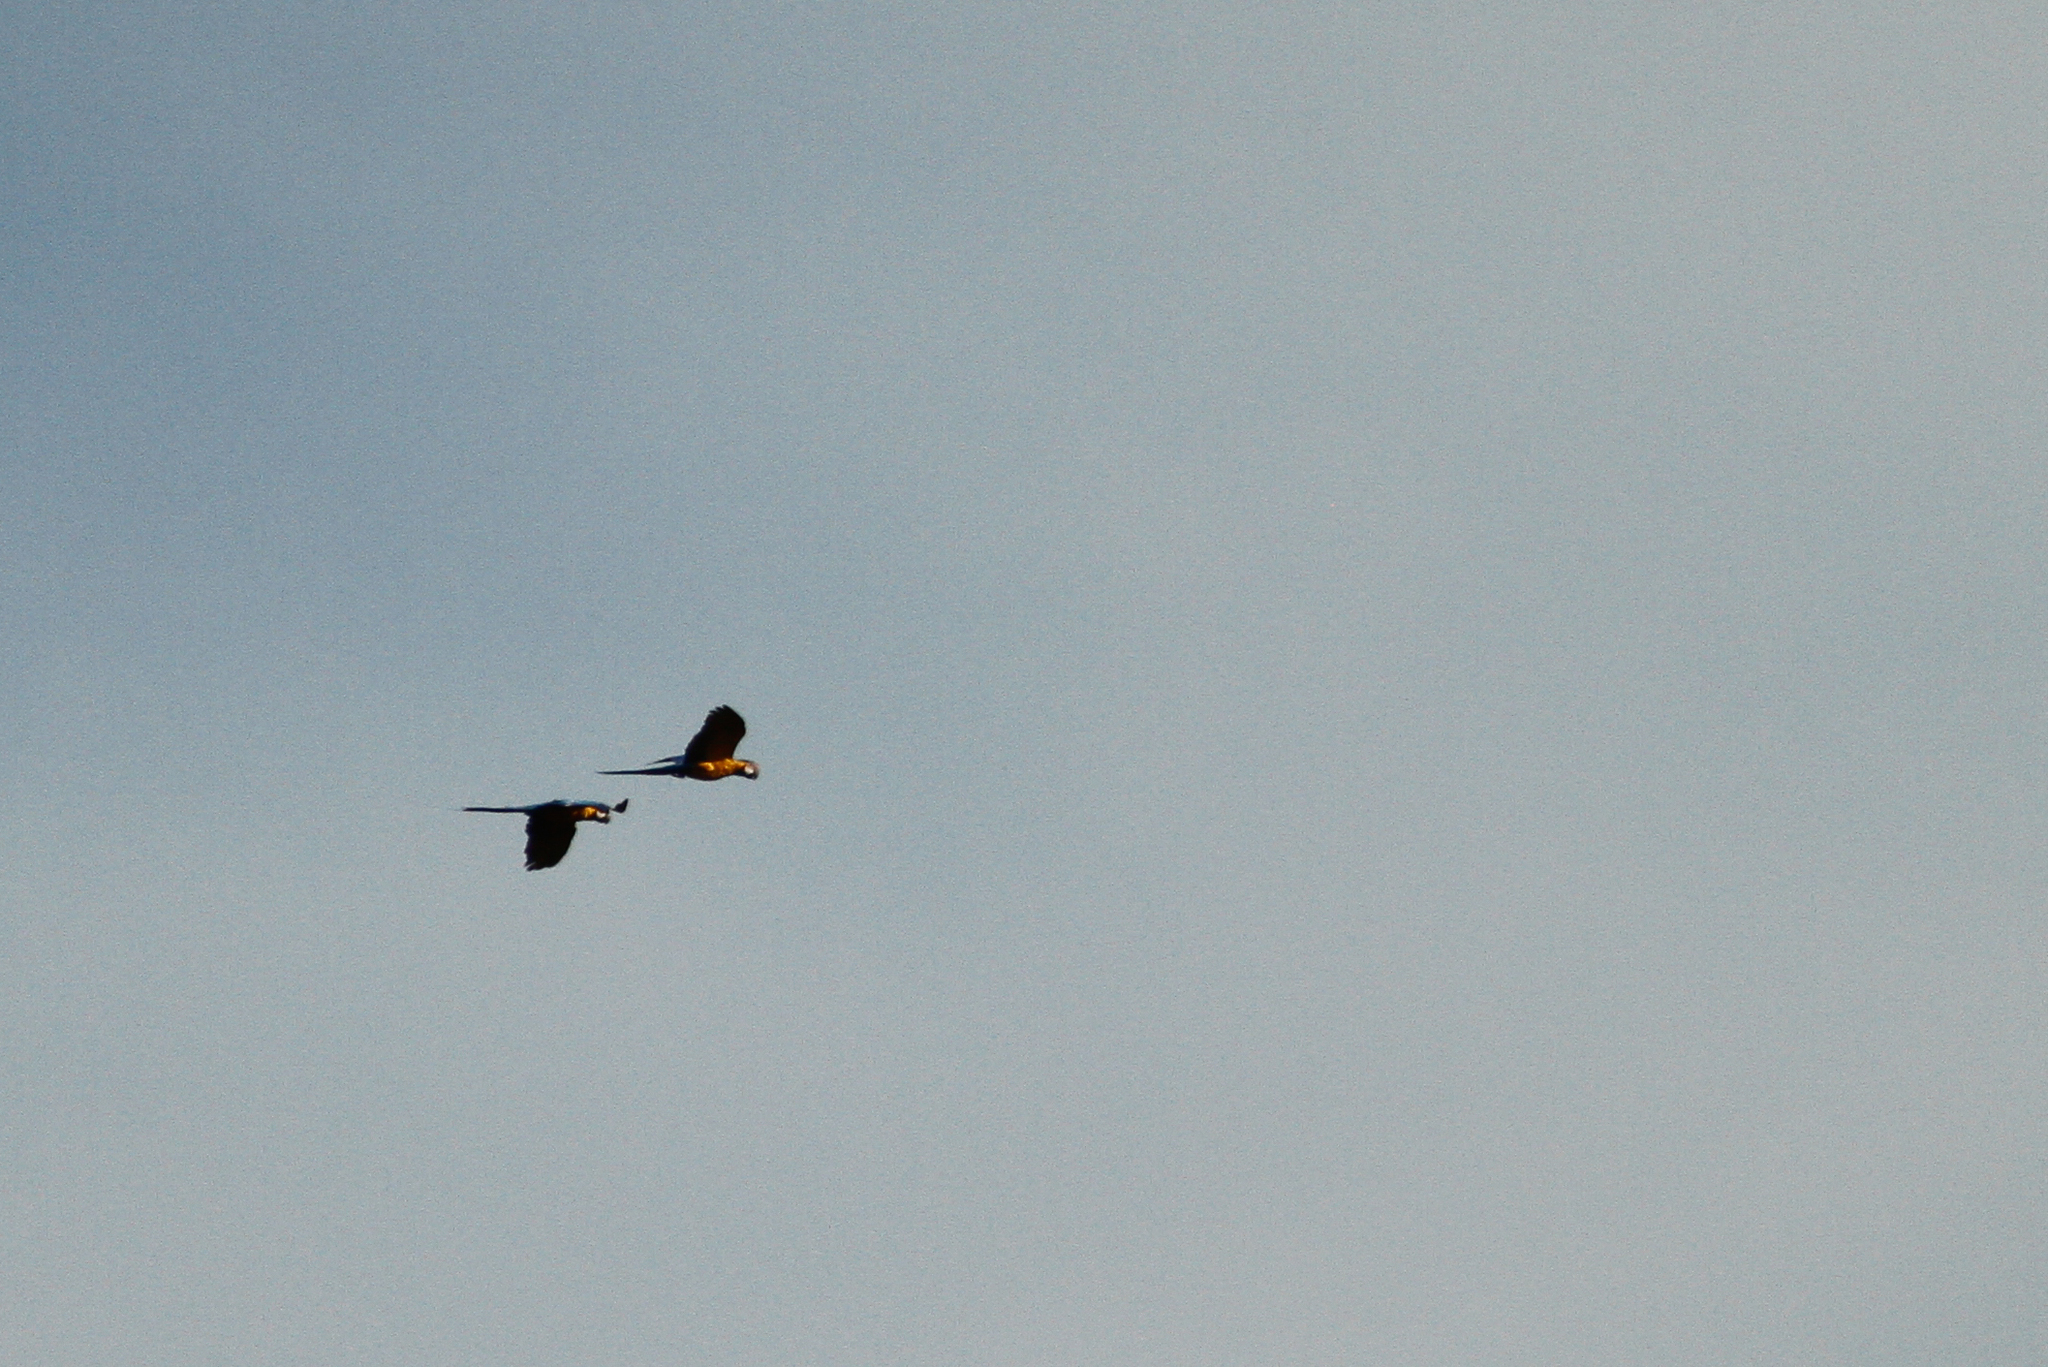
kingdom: Animalia
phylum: Chordata
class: Aves
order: Psittaciformes
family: Psittacidae
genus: Ara
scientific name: Ara ararauna
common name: Blue-and-yellow macaw
